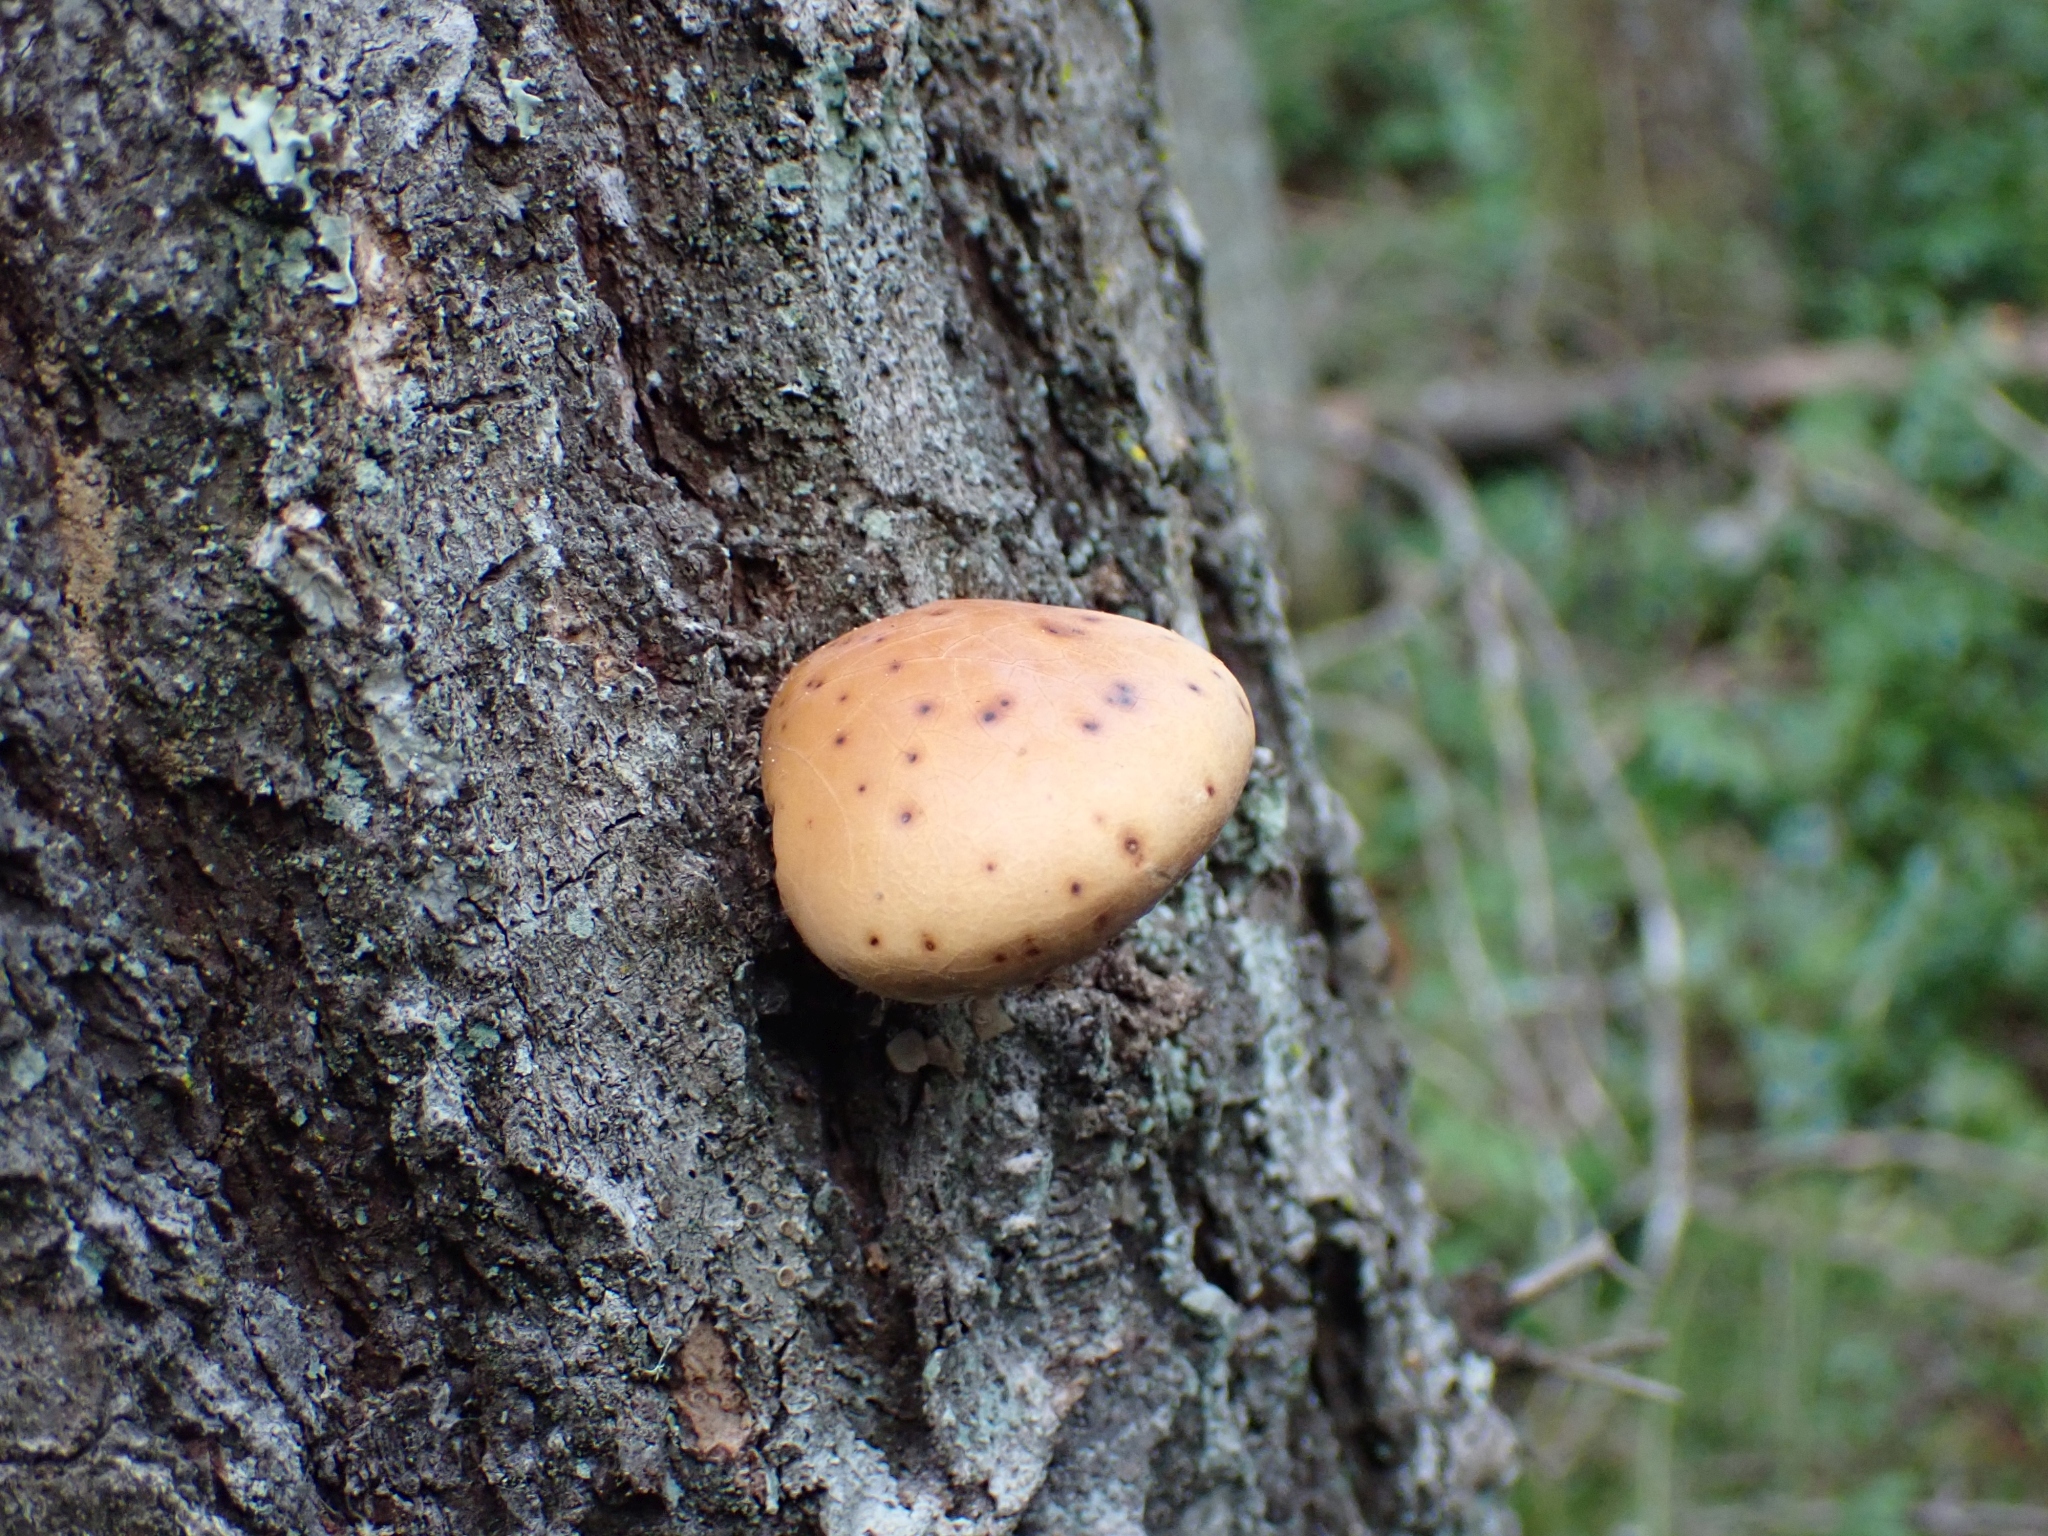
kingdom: Fungi
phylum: Basidiomycota
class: Agaricomycetes
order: Polyporales
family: Polyporaceae
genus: Cryptoporus
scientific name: Cryptoporus volvatus
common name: Veiled polypore
